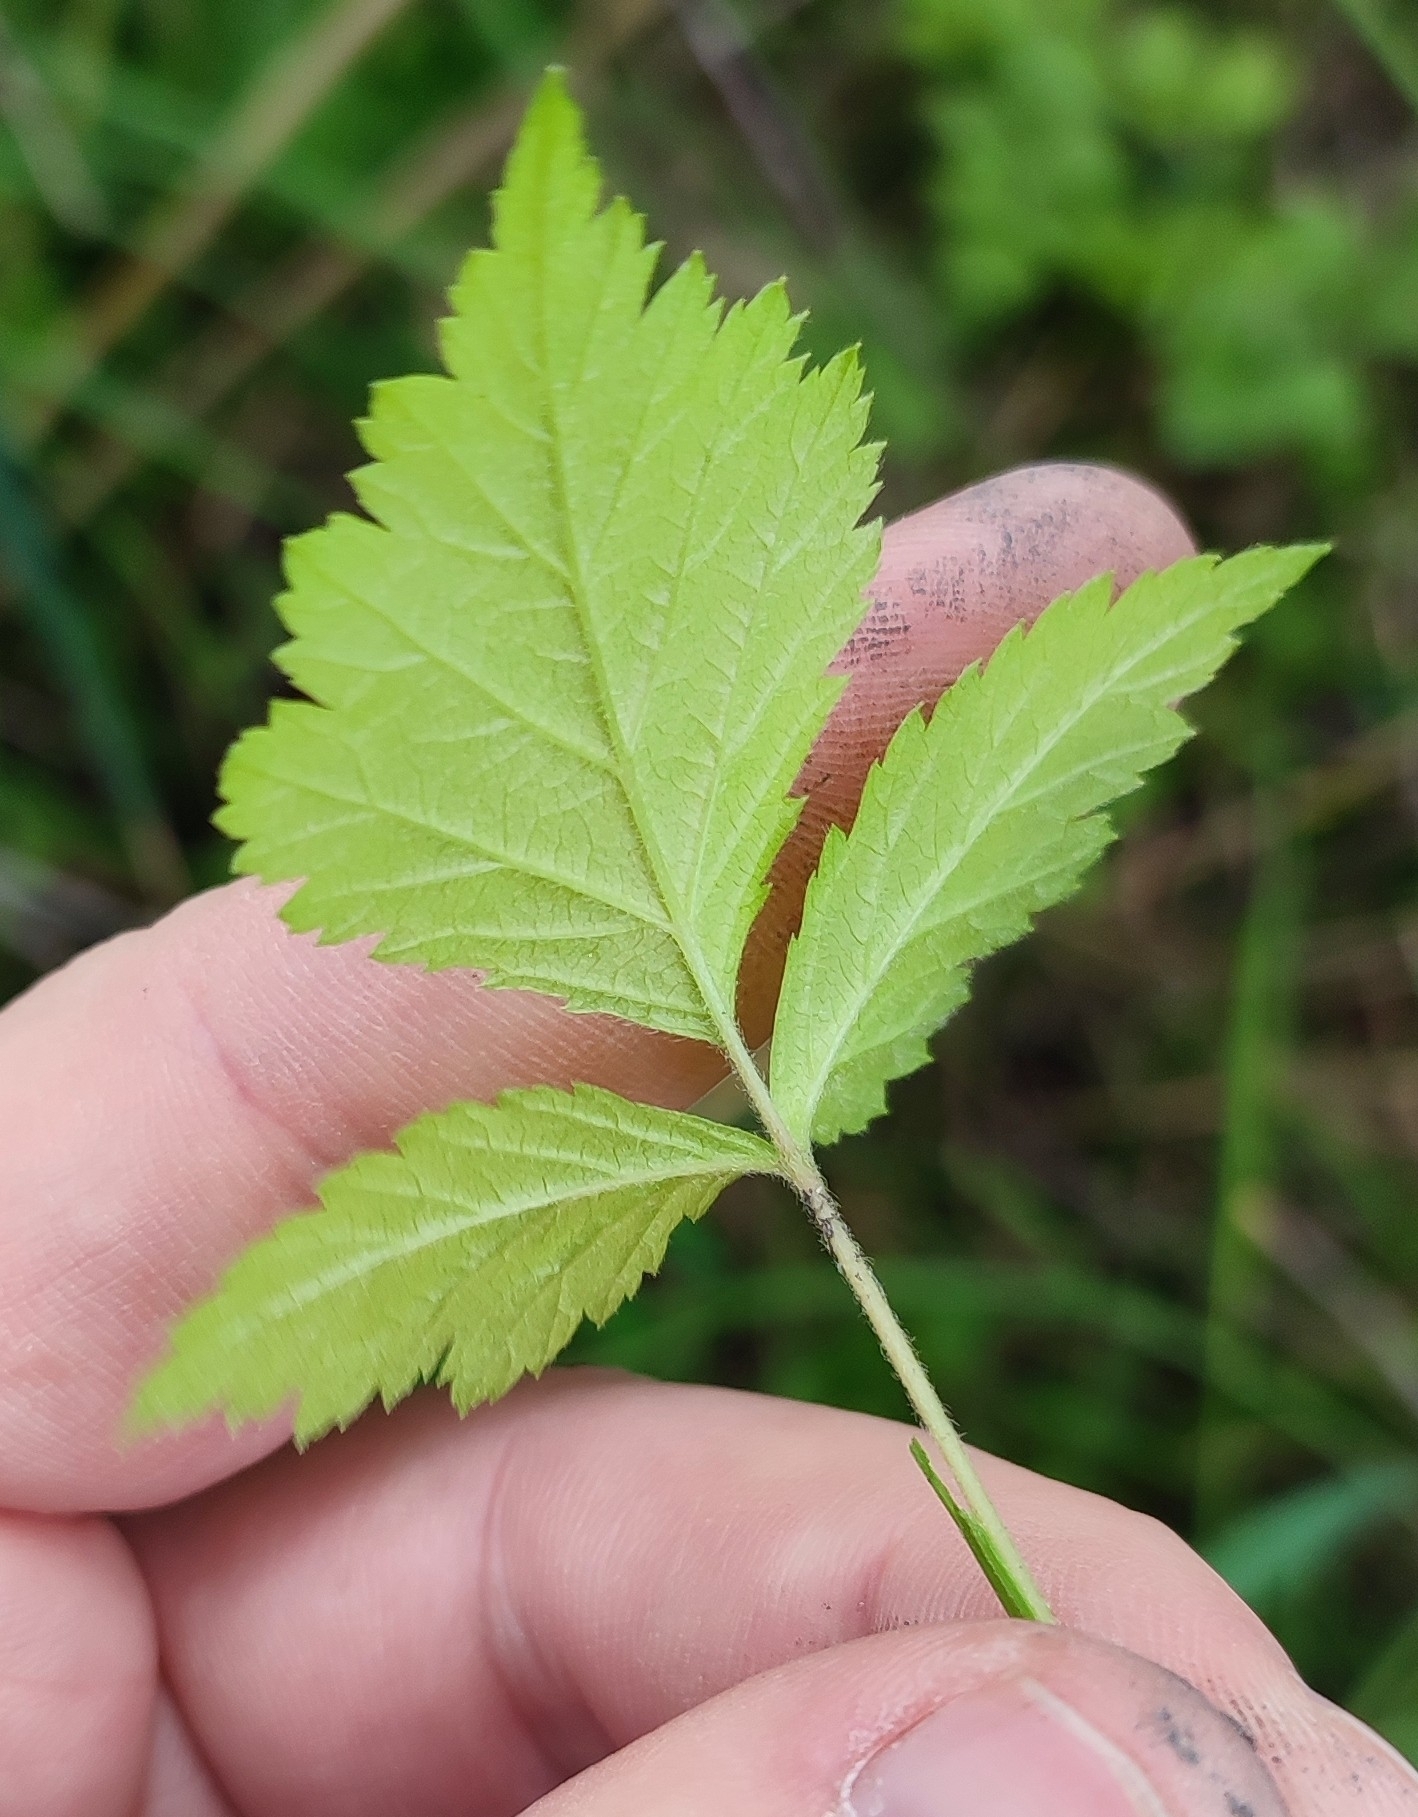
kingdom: Plantae
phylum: Tracheophyta
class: Magnoliopsida
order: Rosales
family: Rosaceae
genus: Rubus
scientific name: Rubus saxatilis
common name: Stone bramble
